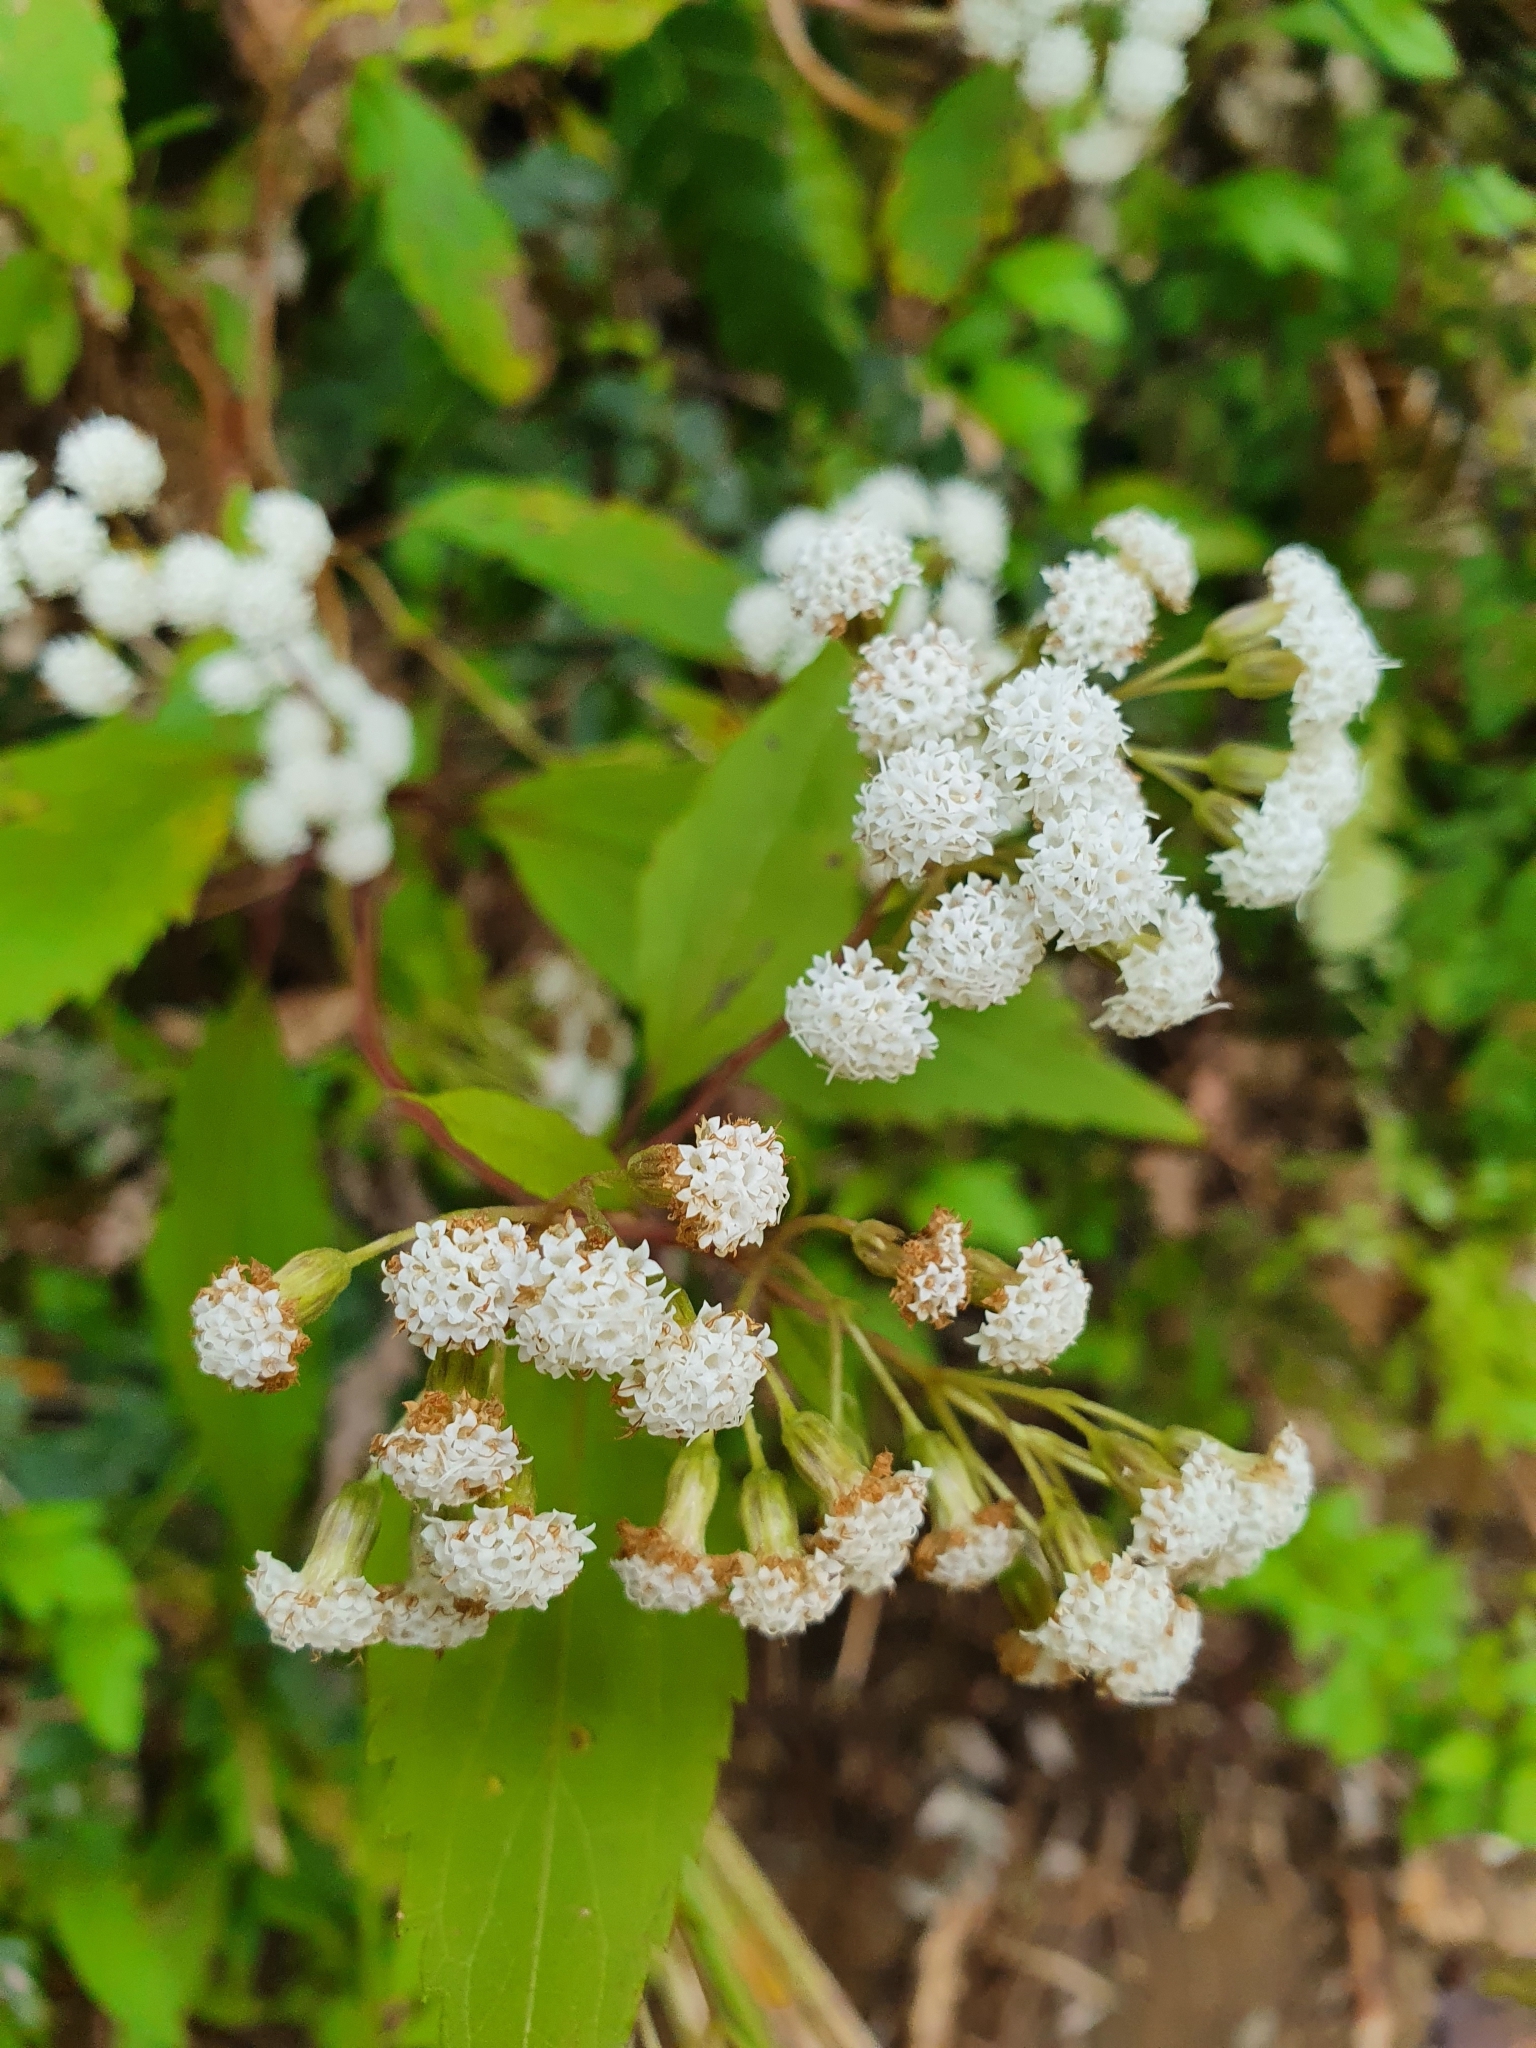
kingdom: Plantae
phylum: Tracheophyta
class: Magnoliopsida
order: Asterales
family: Asteraceae
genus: Ageratina
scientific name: Ageratina riparia
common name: Creeping croftonweed
